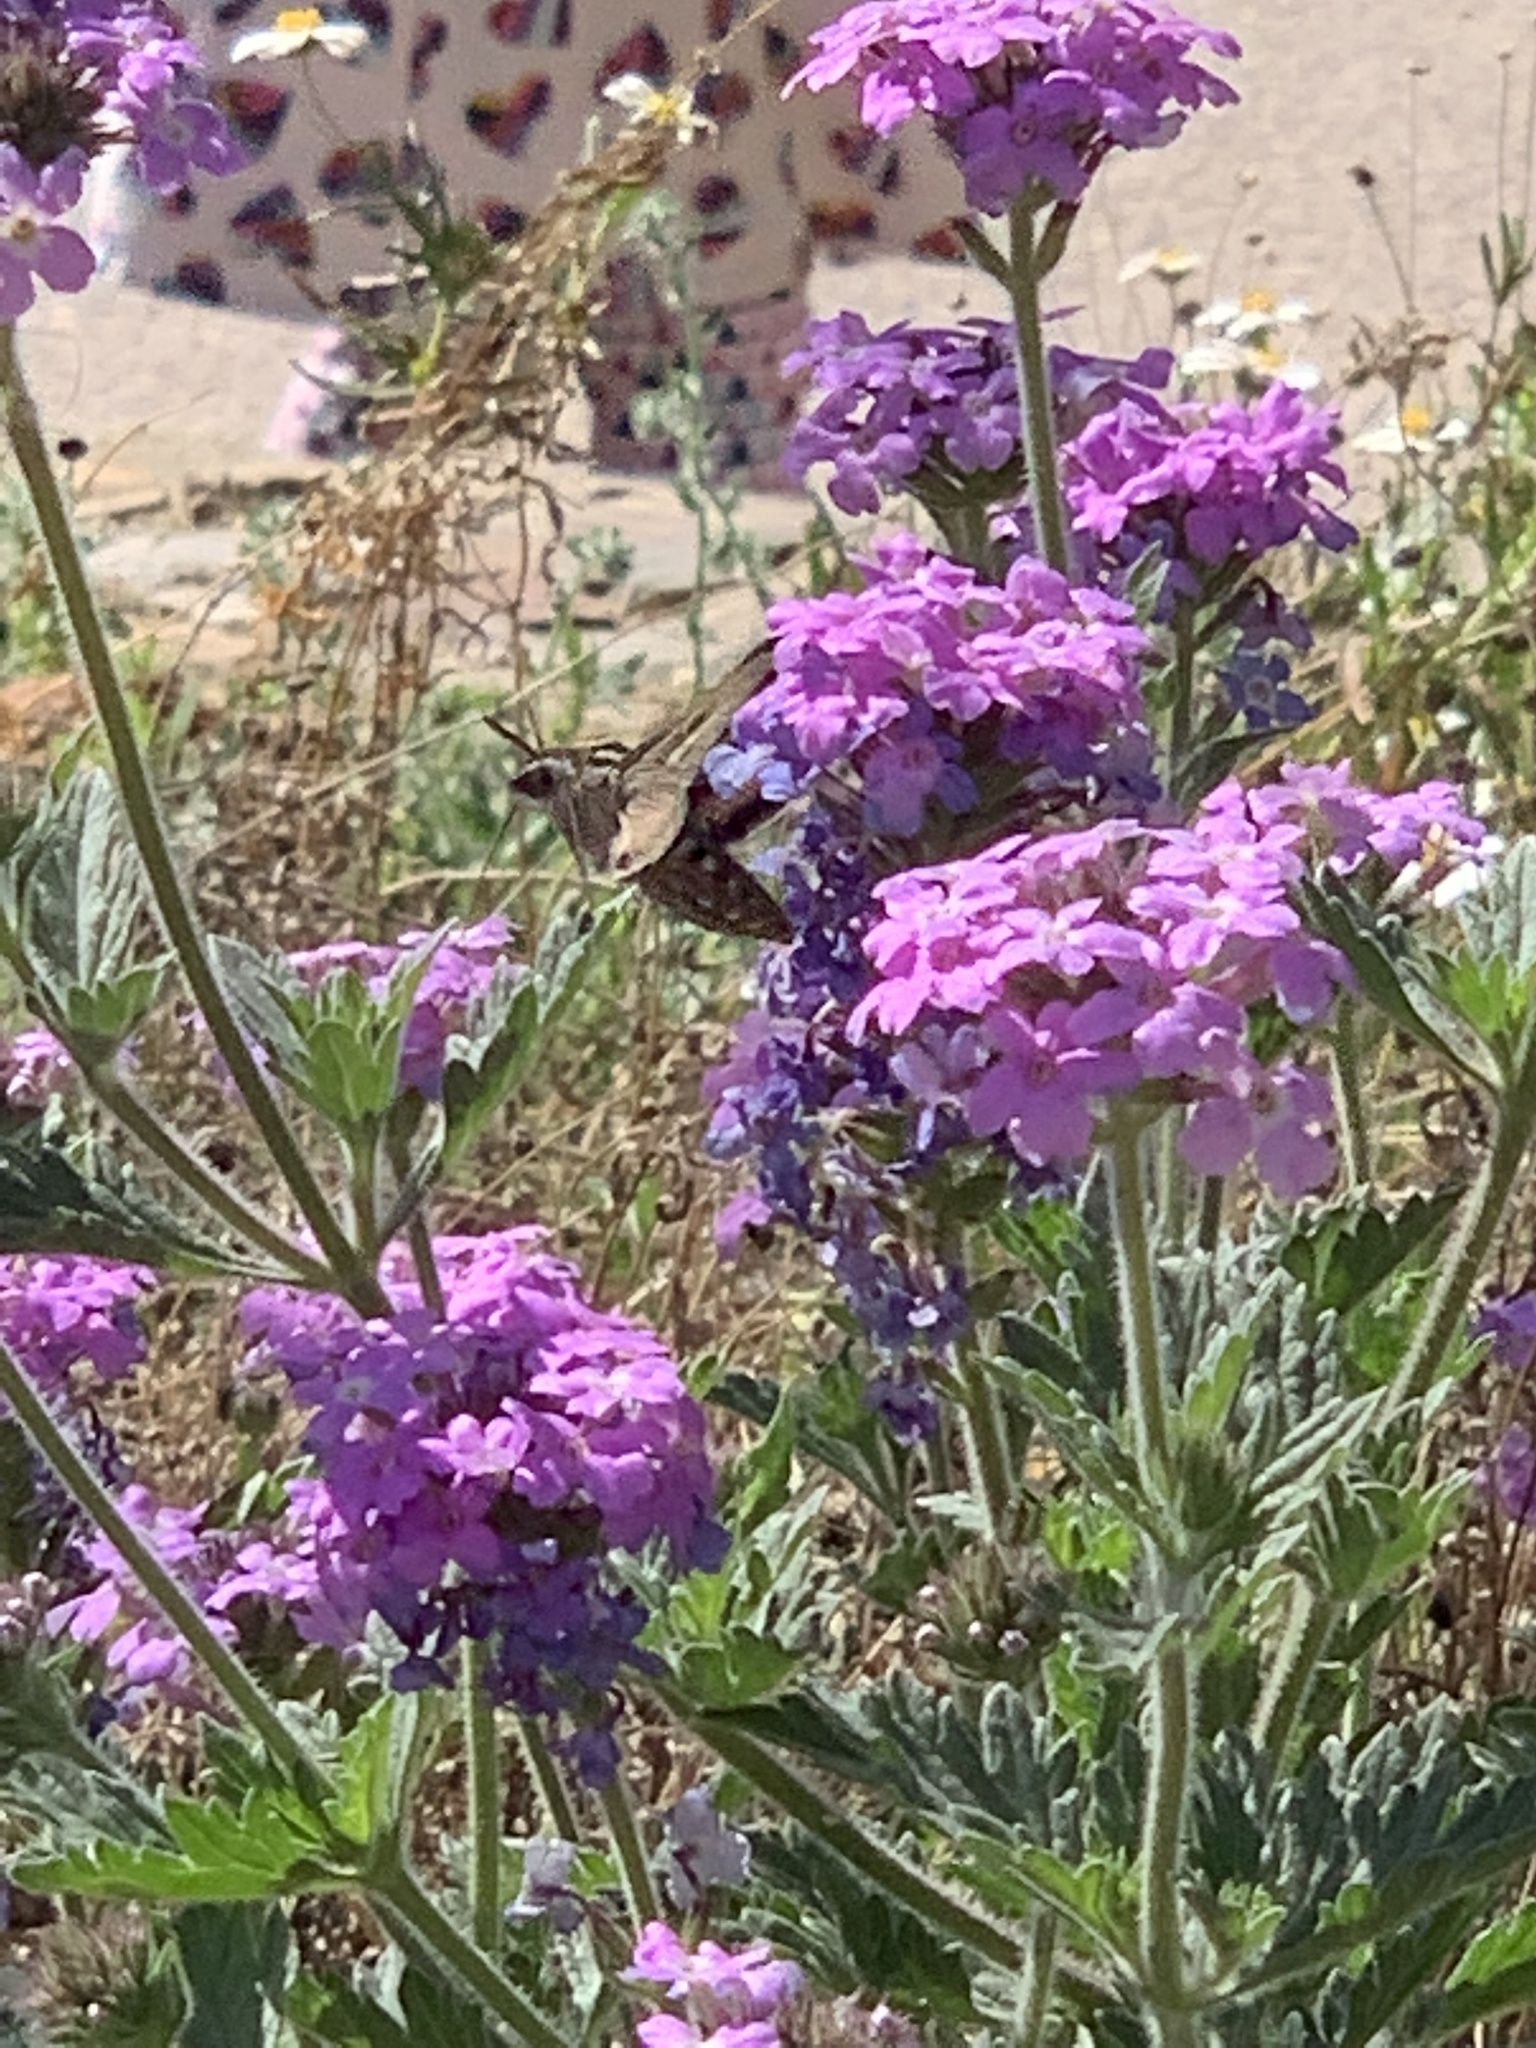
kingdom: Animalia
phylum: Arthropoda
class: Insecta
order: Lepidoptera
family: Sphingidae
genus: Hyles
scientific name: Hyles lineata
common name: White-lined sphinx
